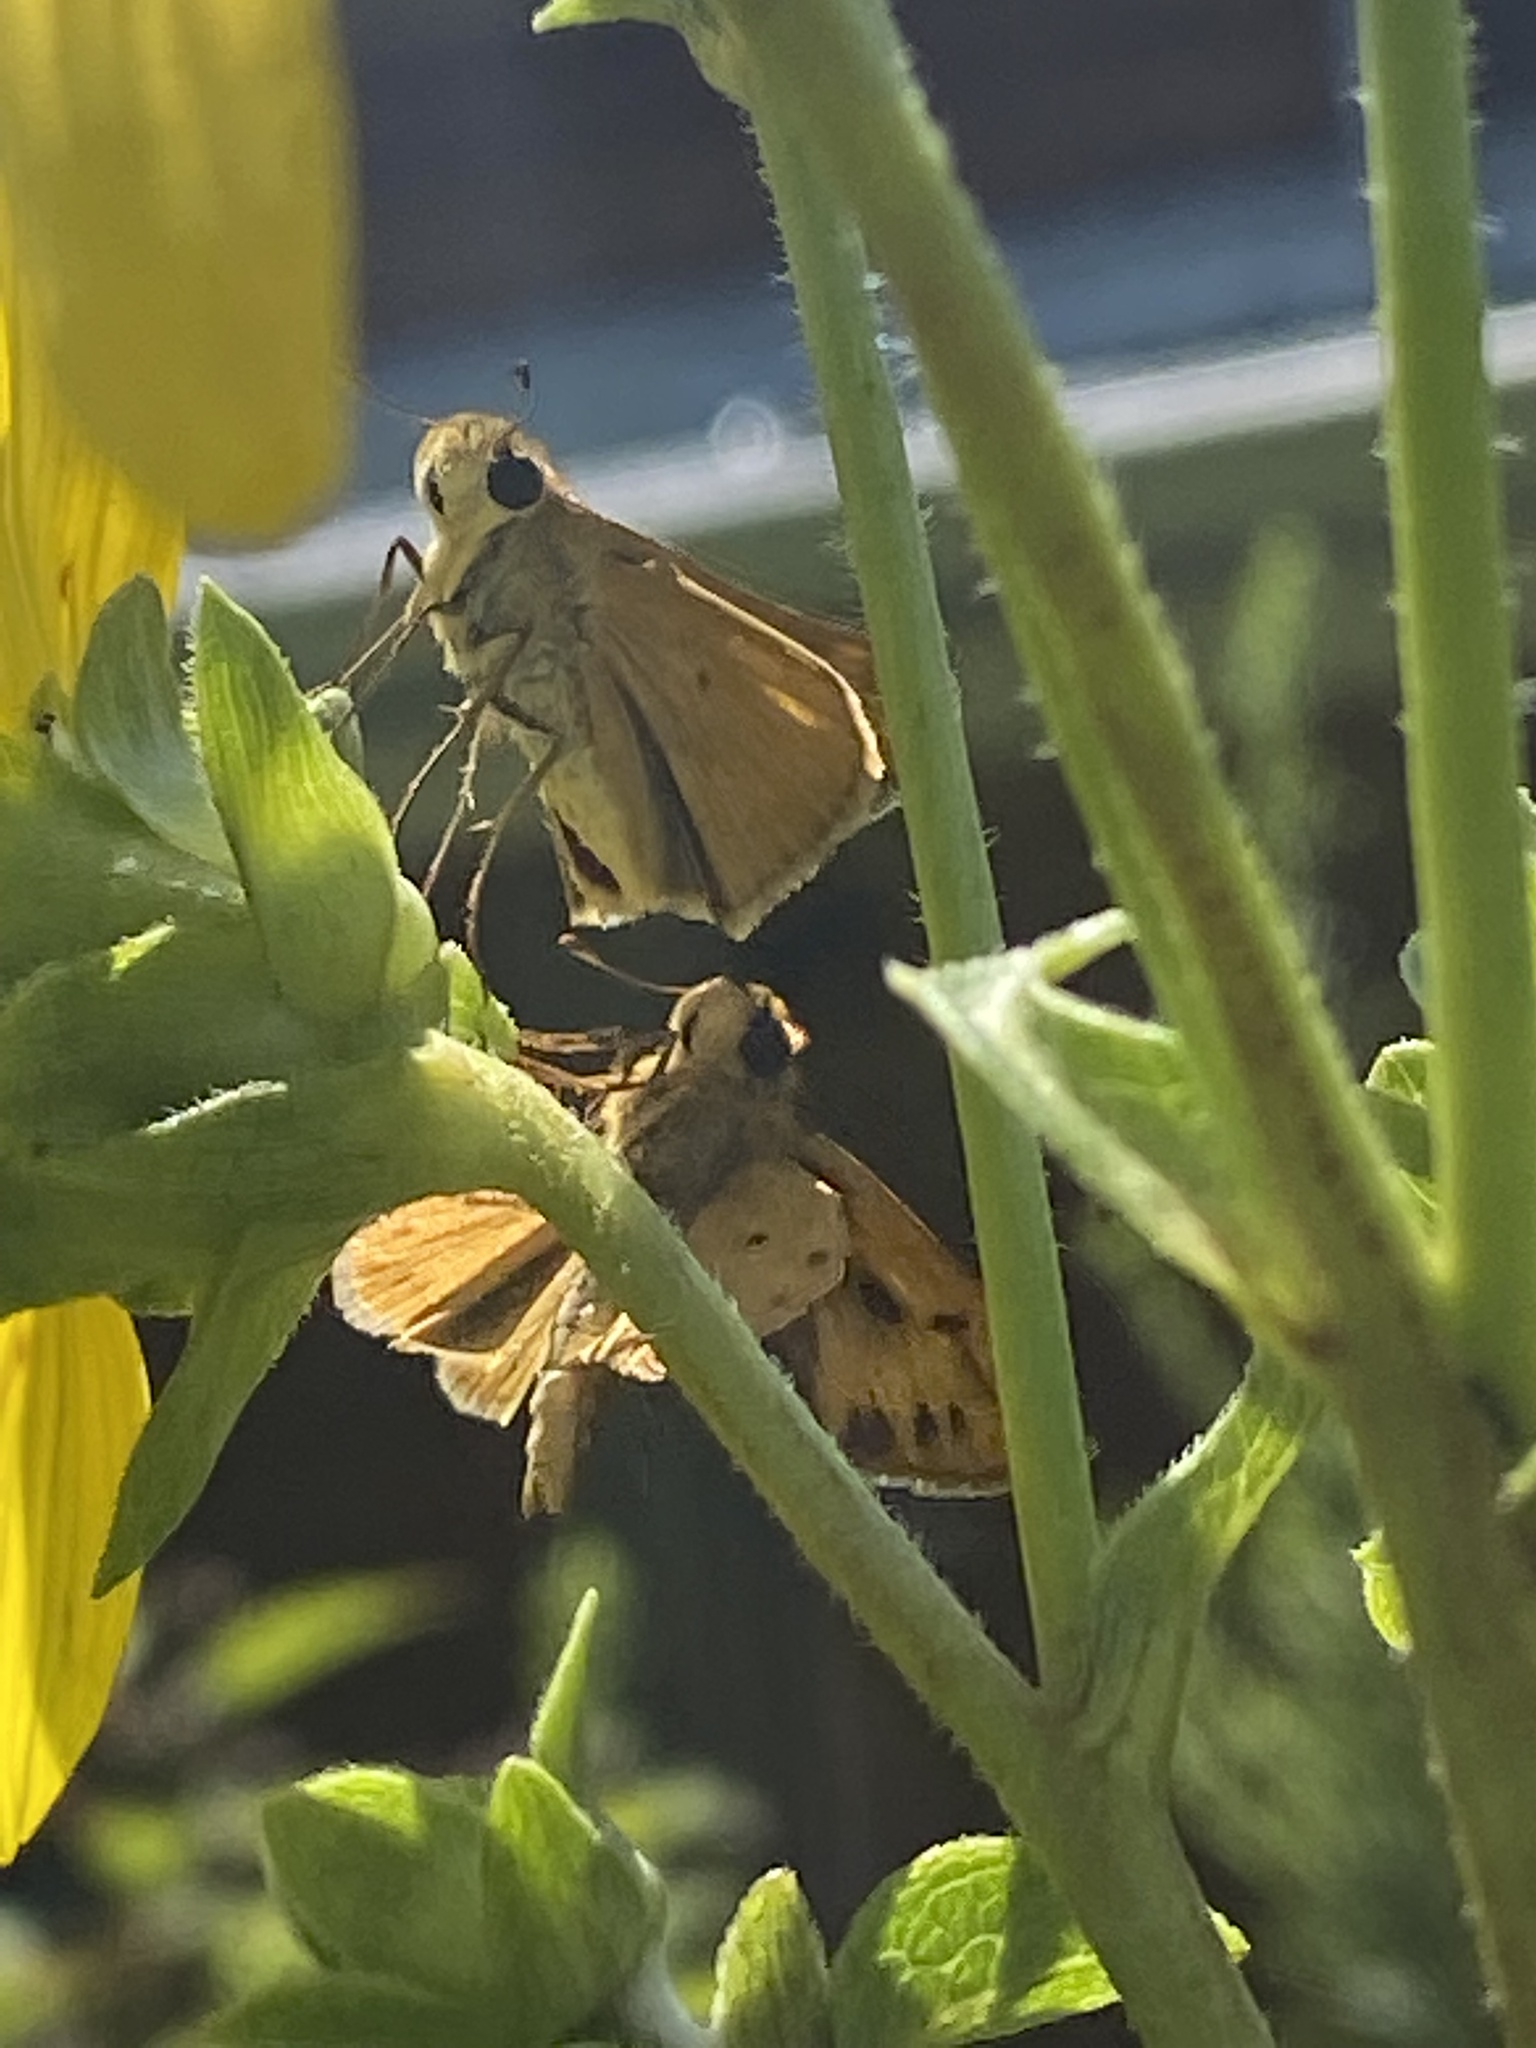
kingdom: Animalia
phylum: Arthropoda
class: Insecta
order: Lepidoptera
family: Hesperiidae
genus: Hylephila
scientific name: Hylephila phyleus
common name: Fiery skipper
